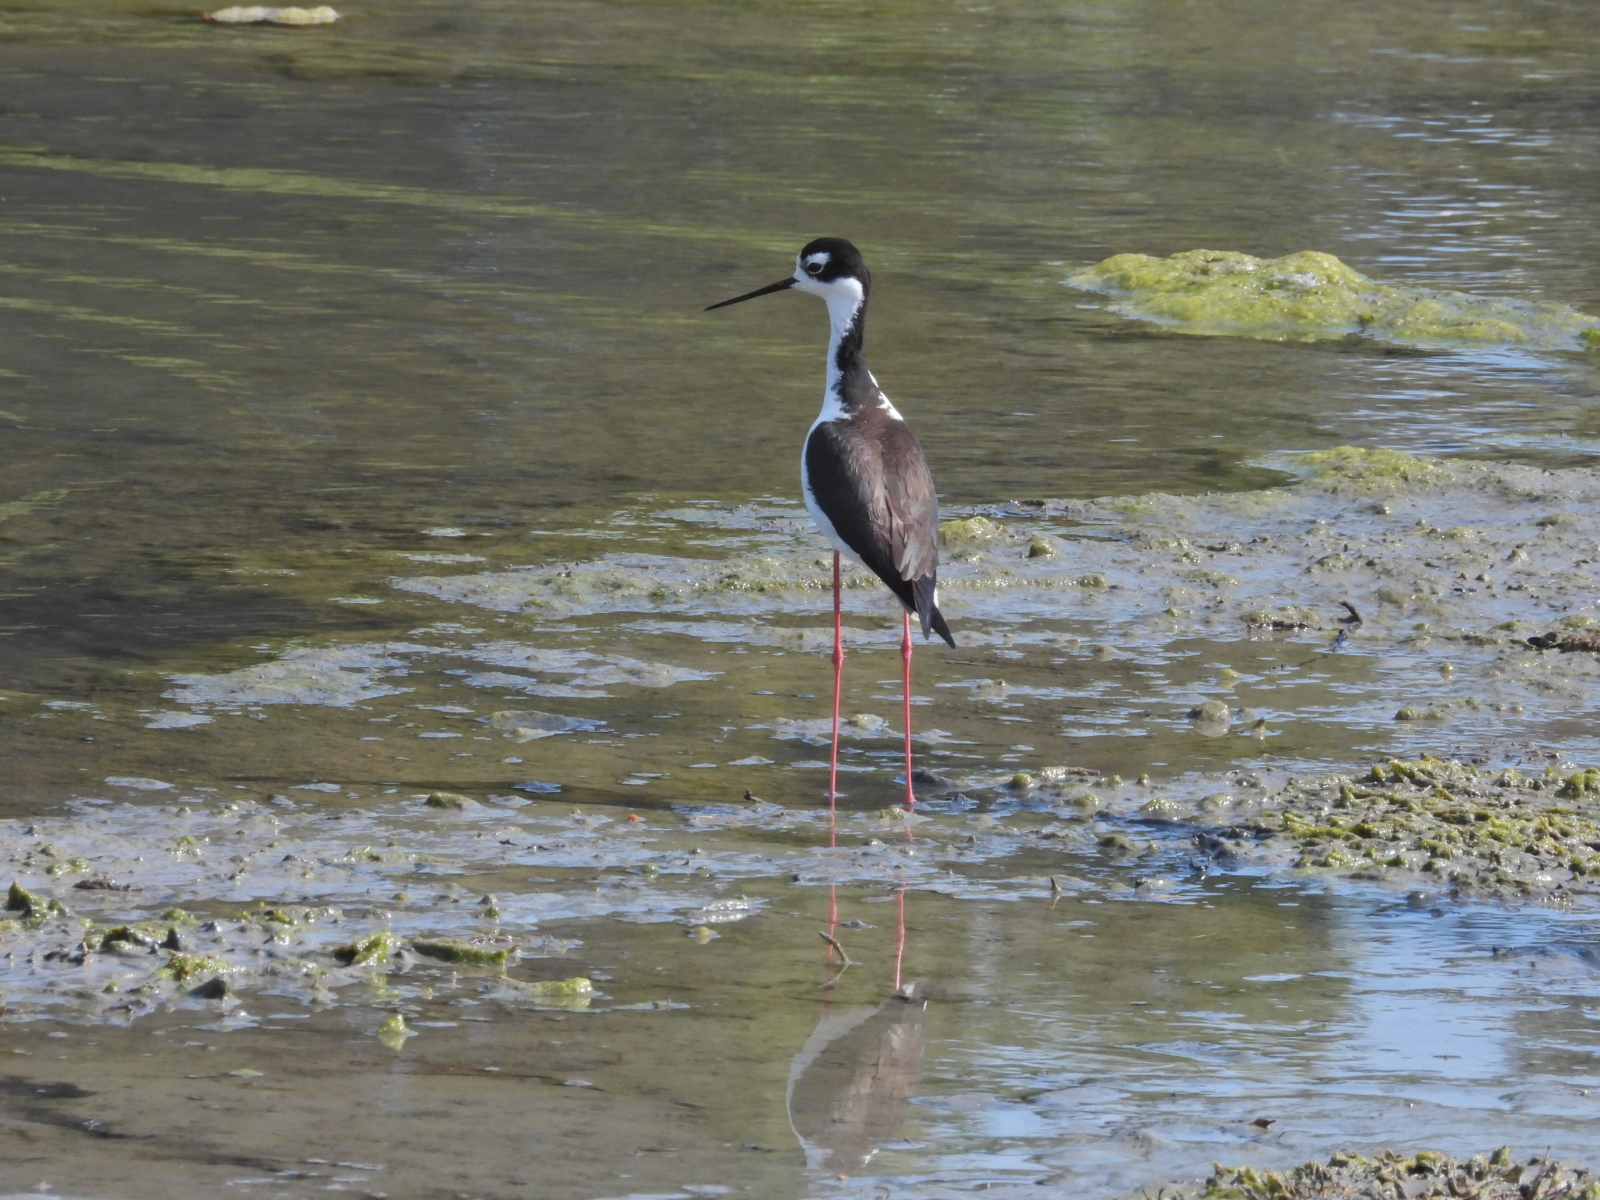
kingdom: Animalia
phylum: Chordata
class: Aves
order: Charadriiformes
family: Recurvirostridae
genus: Himantopus
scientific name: Himantopus mexicanus
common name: Black-necked stilt
